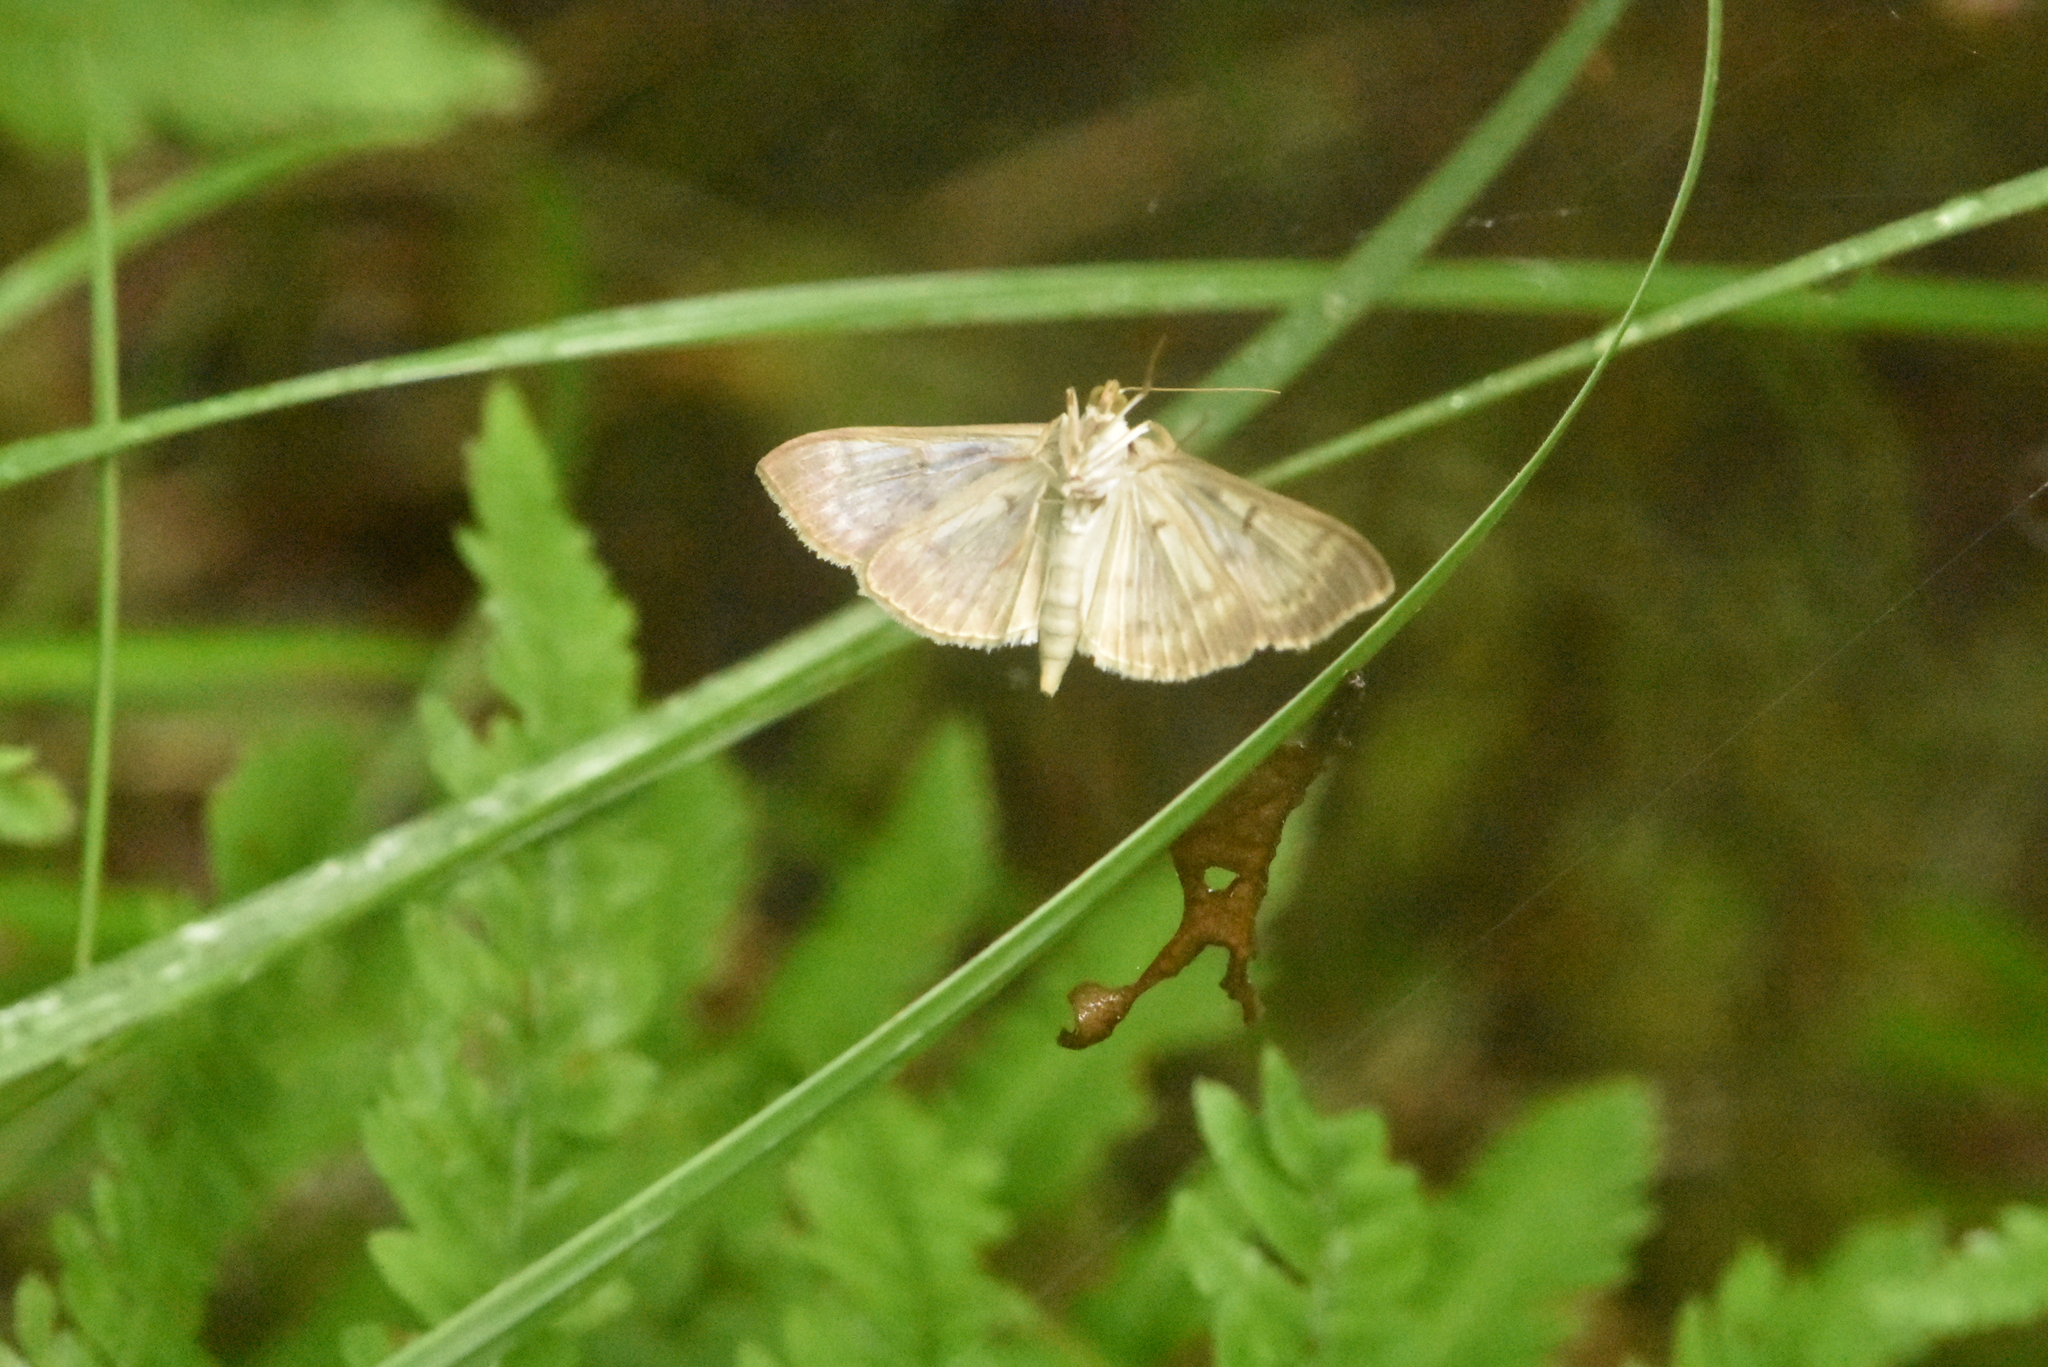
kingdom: Animalia
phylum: Arthropoda
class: Insecta
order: Lepidoptera
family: Crambidae
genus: Patania
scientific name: Patania ruralis
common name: Mother of pearl
